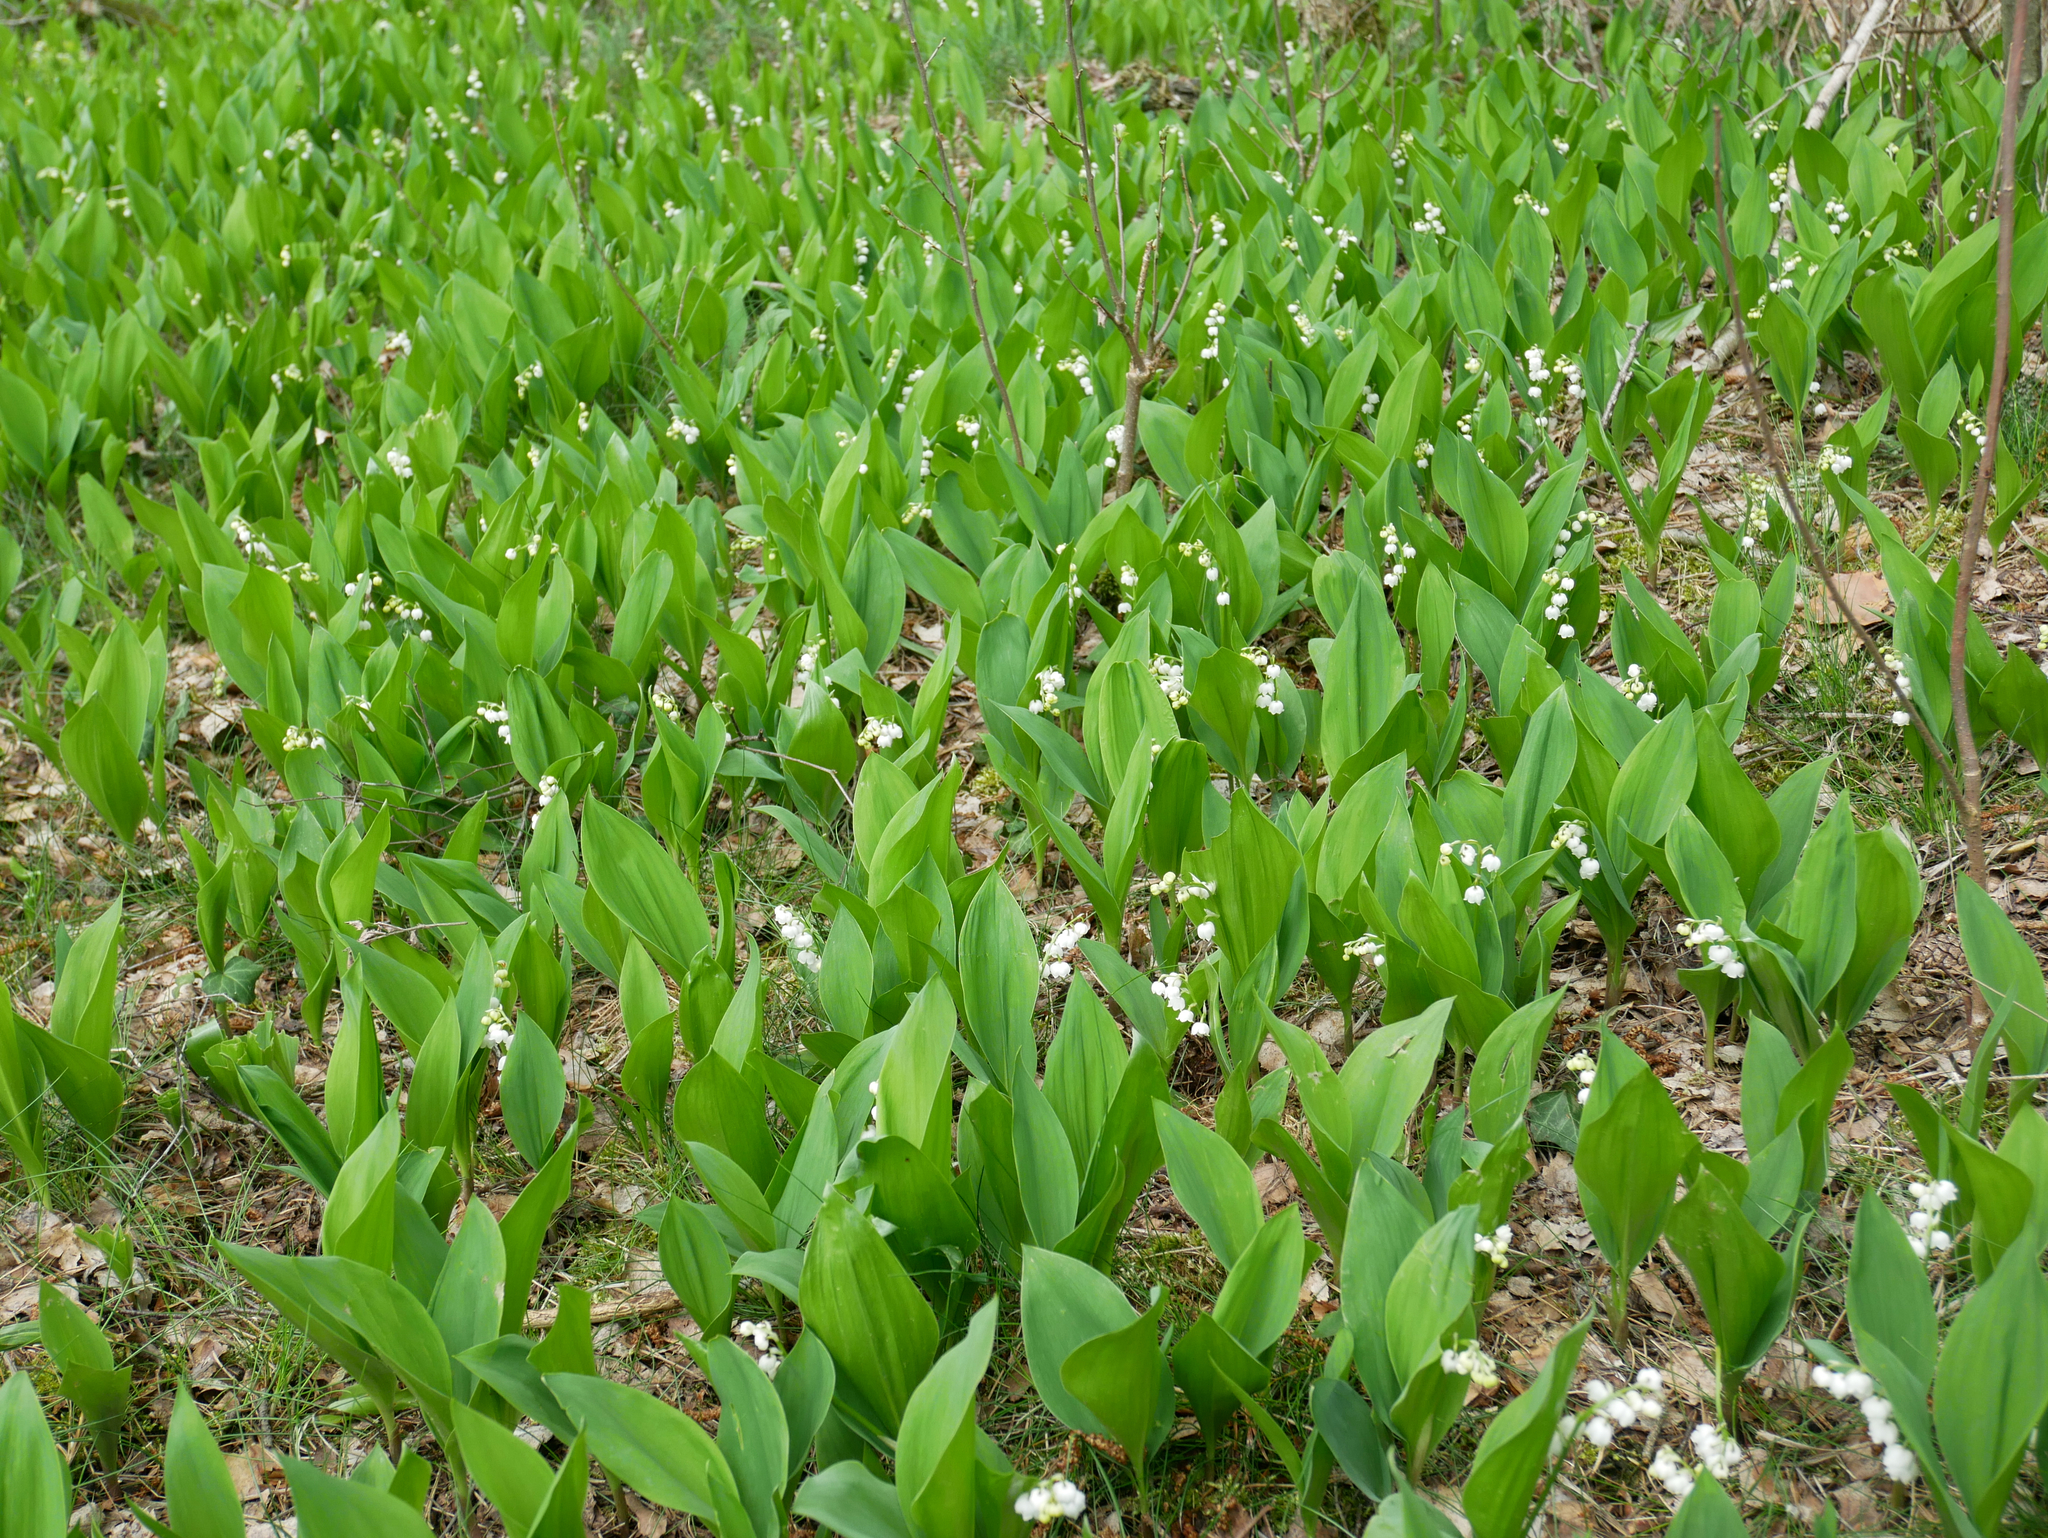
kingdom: Plantae
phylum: Tracheophyta
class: Liliopsida
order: Asparagales
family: Asparagaceae
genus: Convallaria
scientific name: Convallaria majalis
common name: Lily-of-the-valley
